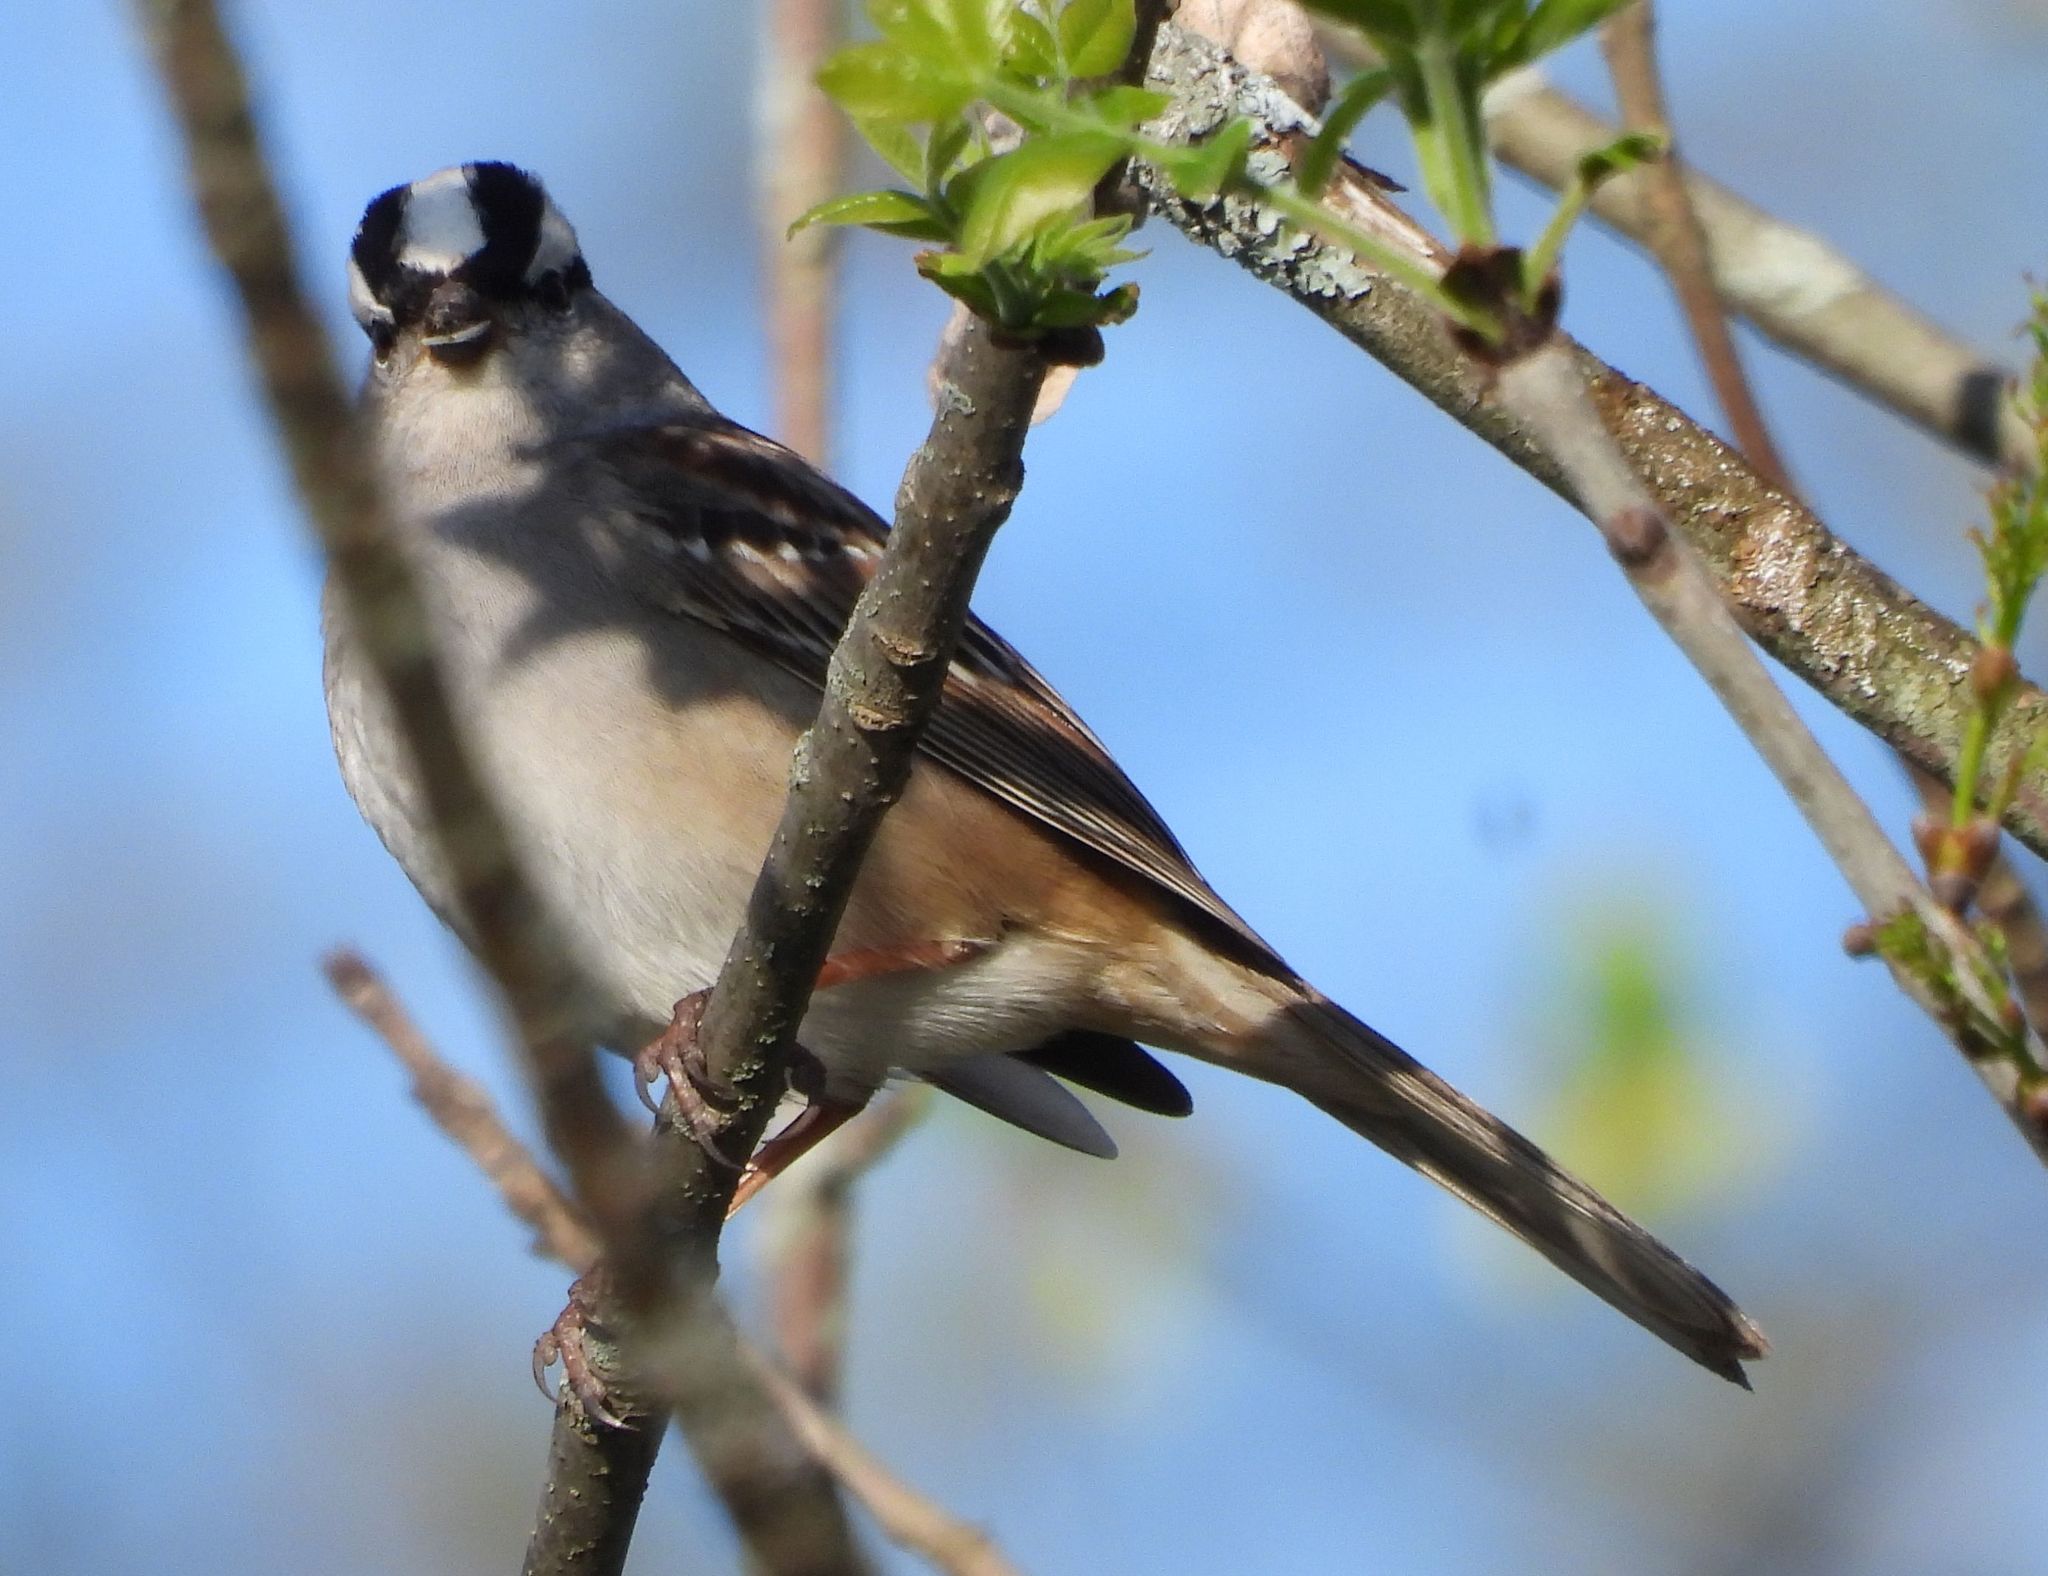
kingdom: Animalia
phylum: Chordata
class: Aves
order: Passeriformes
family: Passerellidae
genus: Zonotrichia
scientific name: Zonotrichia leucophrys
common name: White-crowned sparrow
